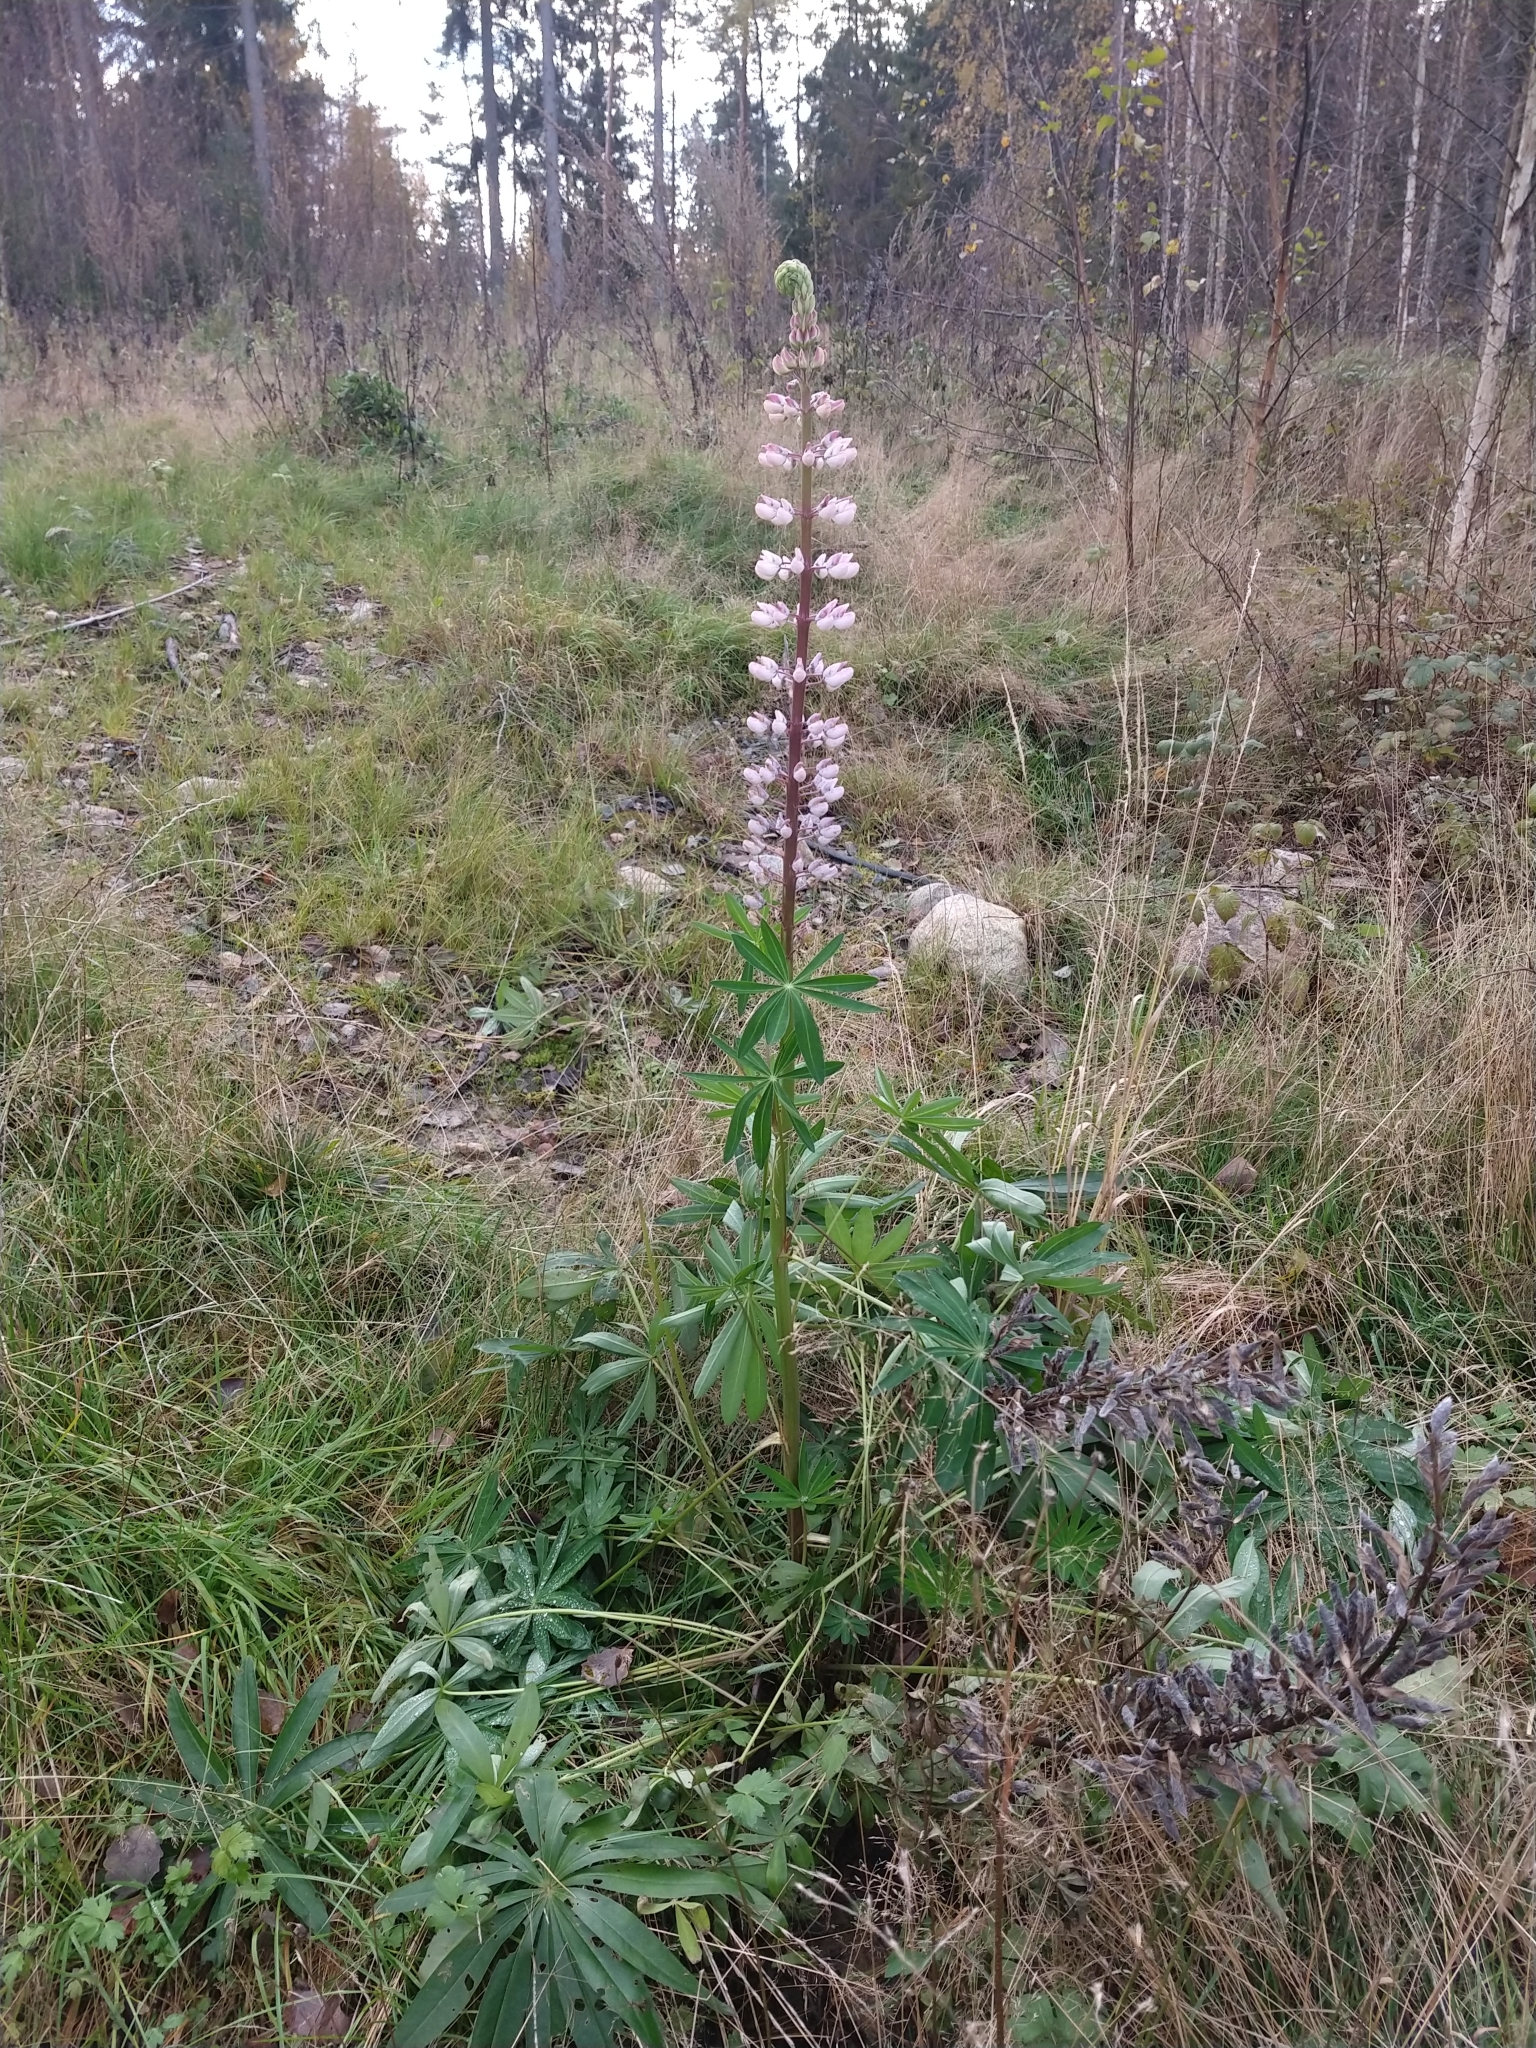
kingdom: Plantae
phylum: Tracheophyta
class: Magnoliopsida
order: Fabales
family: Fabaceae
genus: Lupinus
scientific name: Lupinus polyphyllus
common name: Garden lupin
